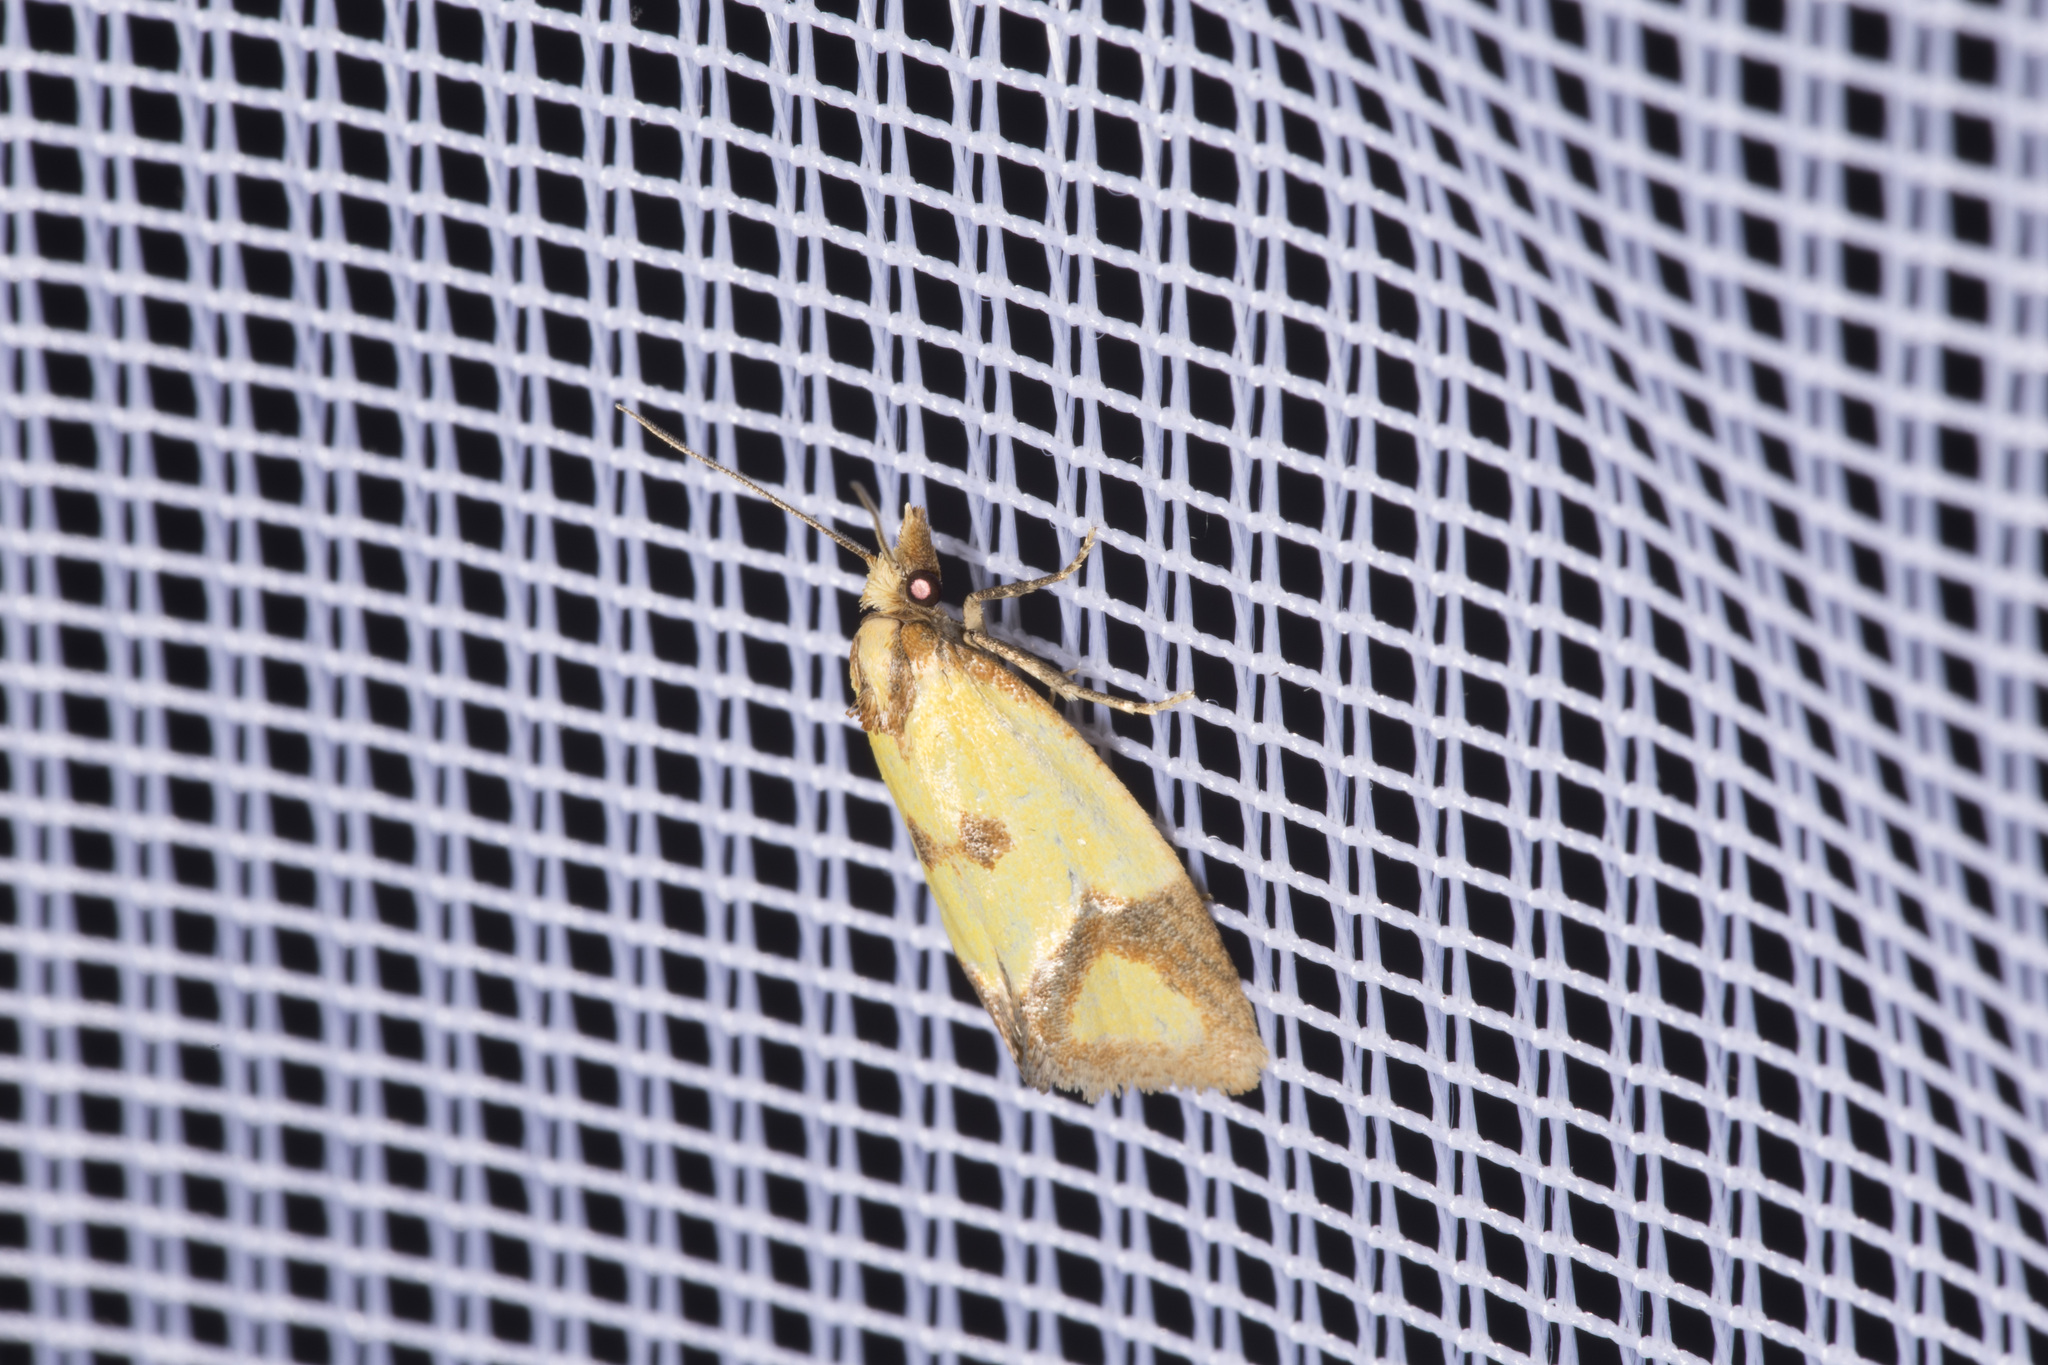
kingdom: Animalia
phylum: Arthropoda
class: Insecta
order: Lepidoptera
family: Tortricidae
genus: Agapeta
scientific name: Agapeta zoegana
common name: Sulfur knapweed root moth
